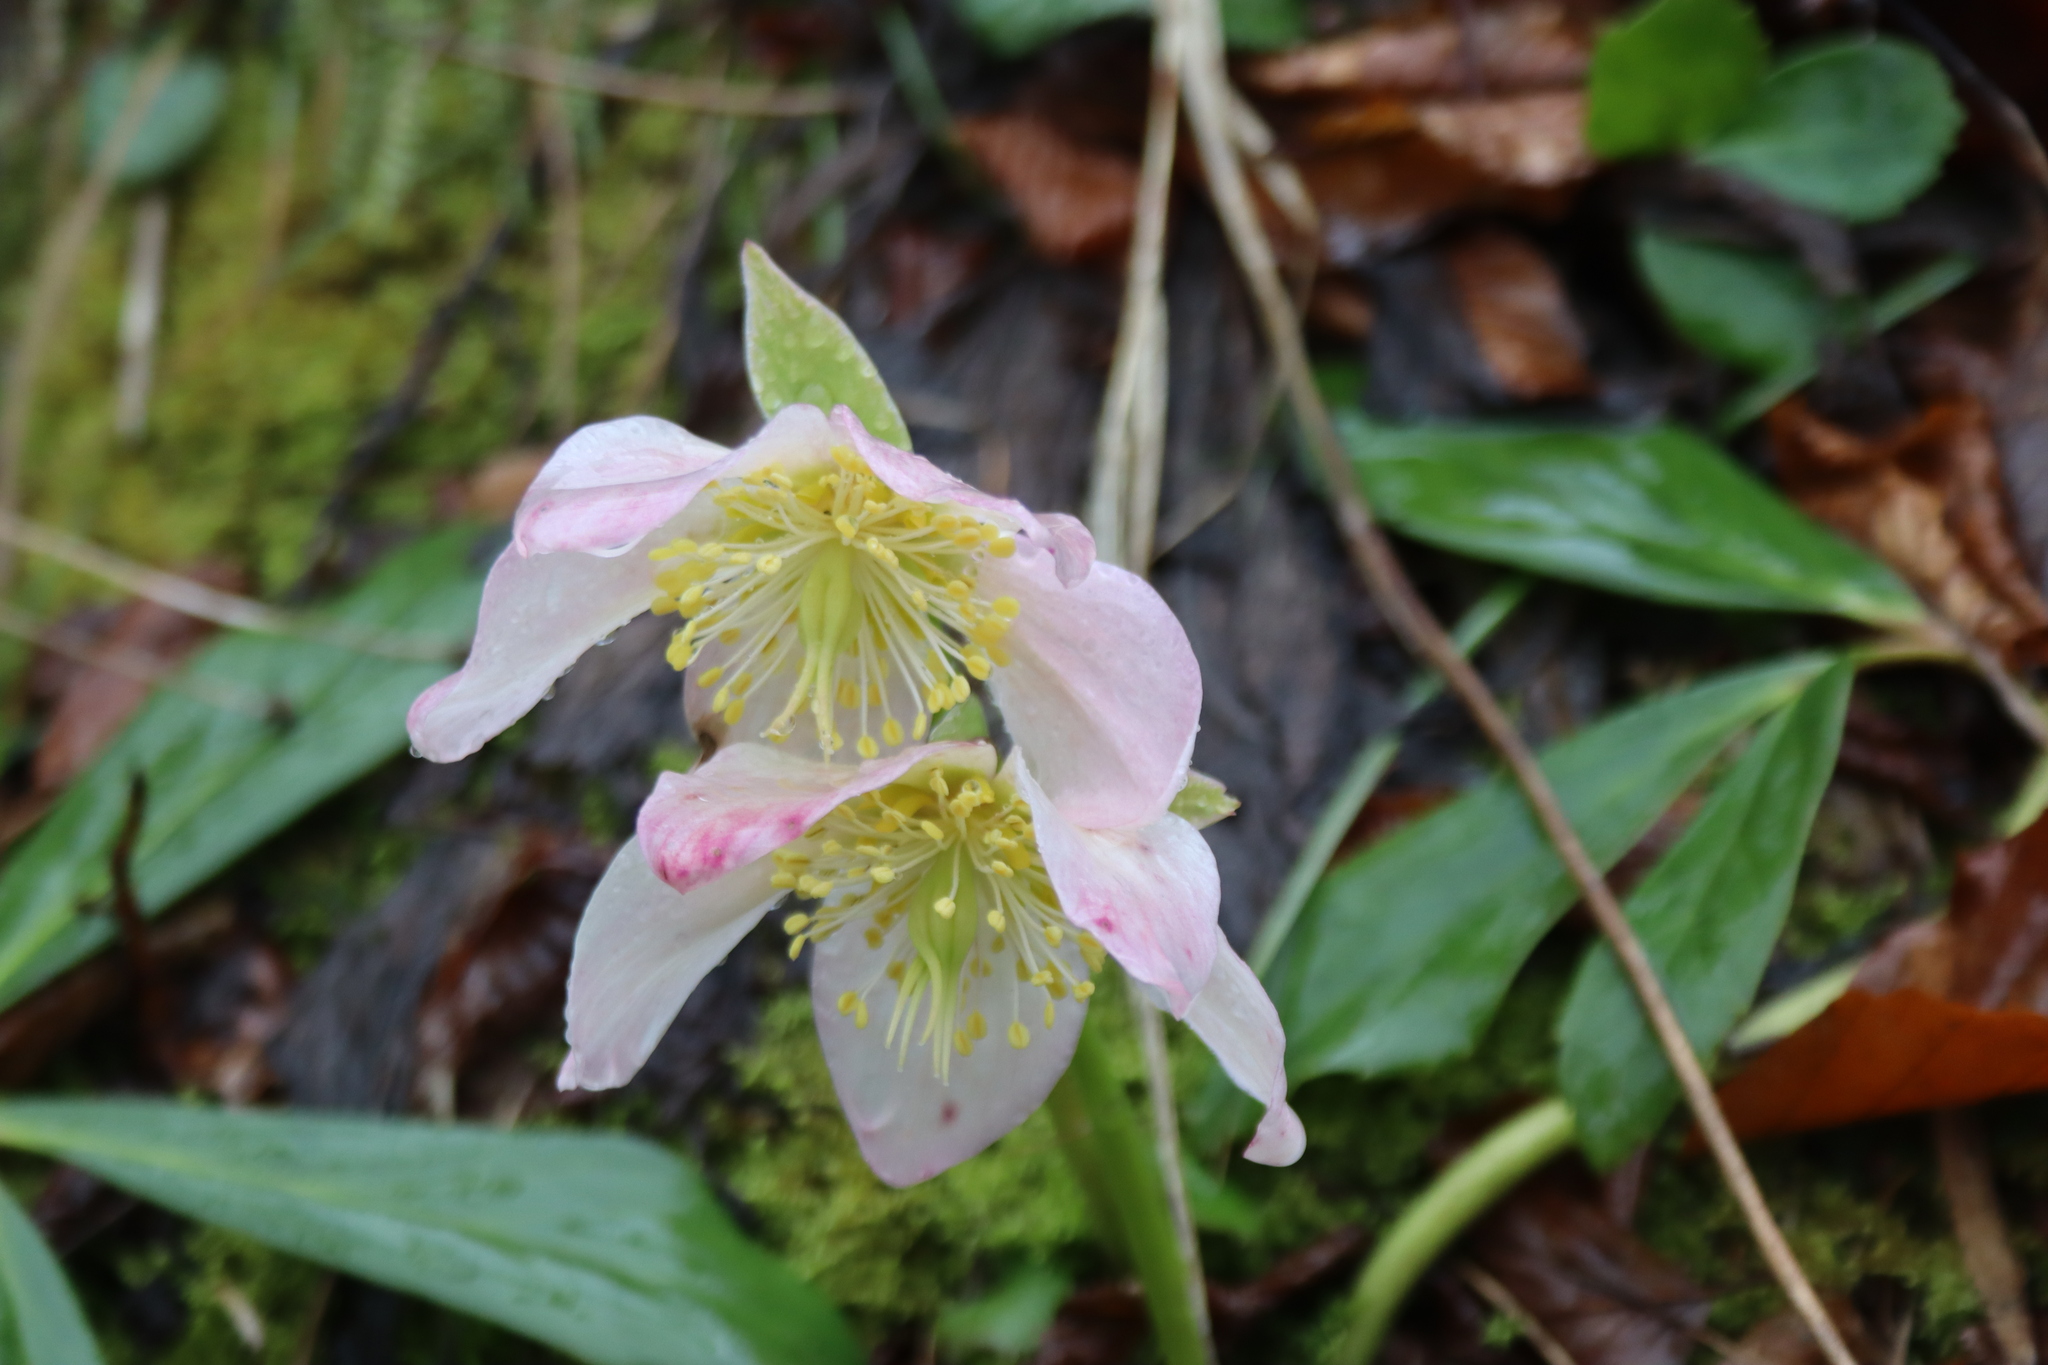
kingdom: Plantae
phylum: Tracheophyta
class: Magnoliopsida
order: Ranunculales
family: Ranunculaceae
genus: Helleborus
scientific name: Helleborus niger
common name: Black hellebore
